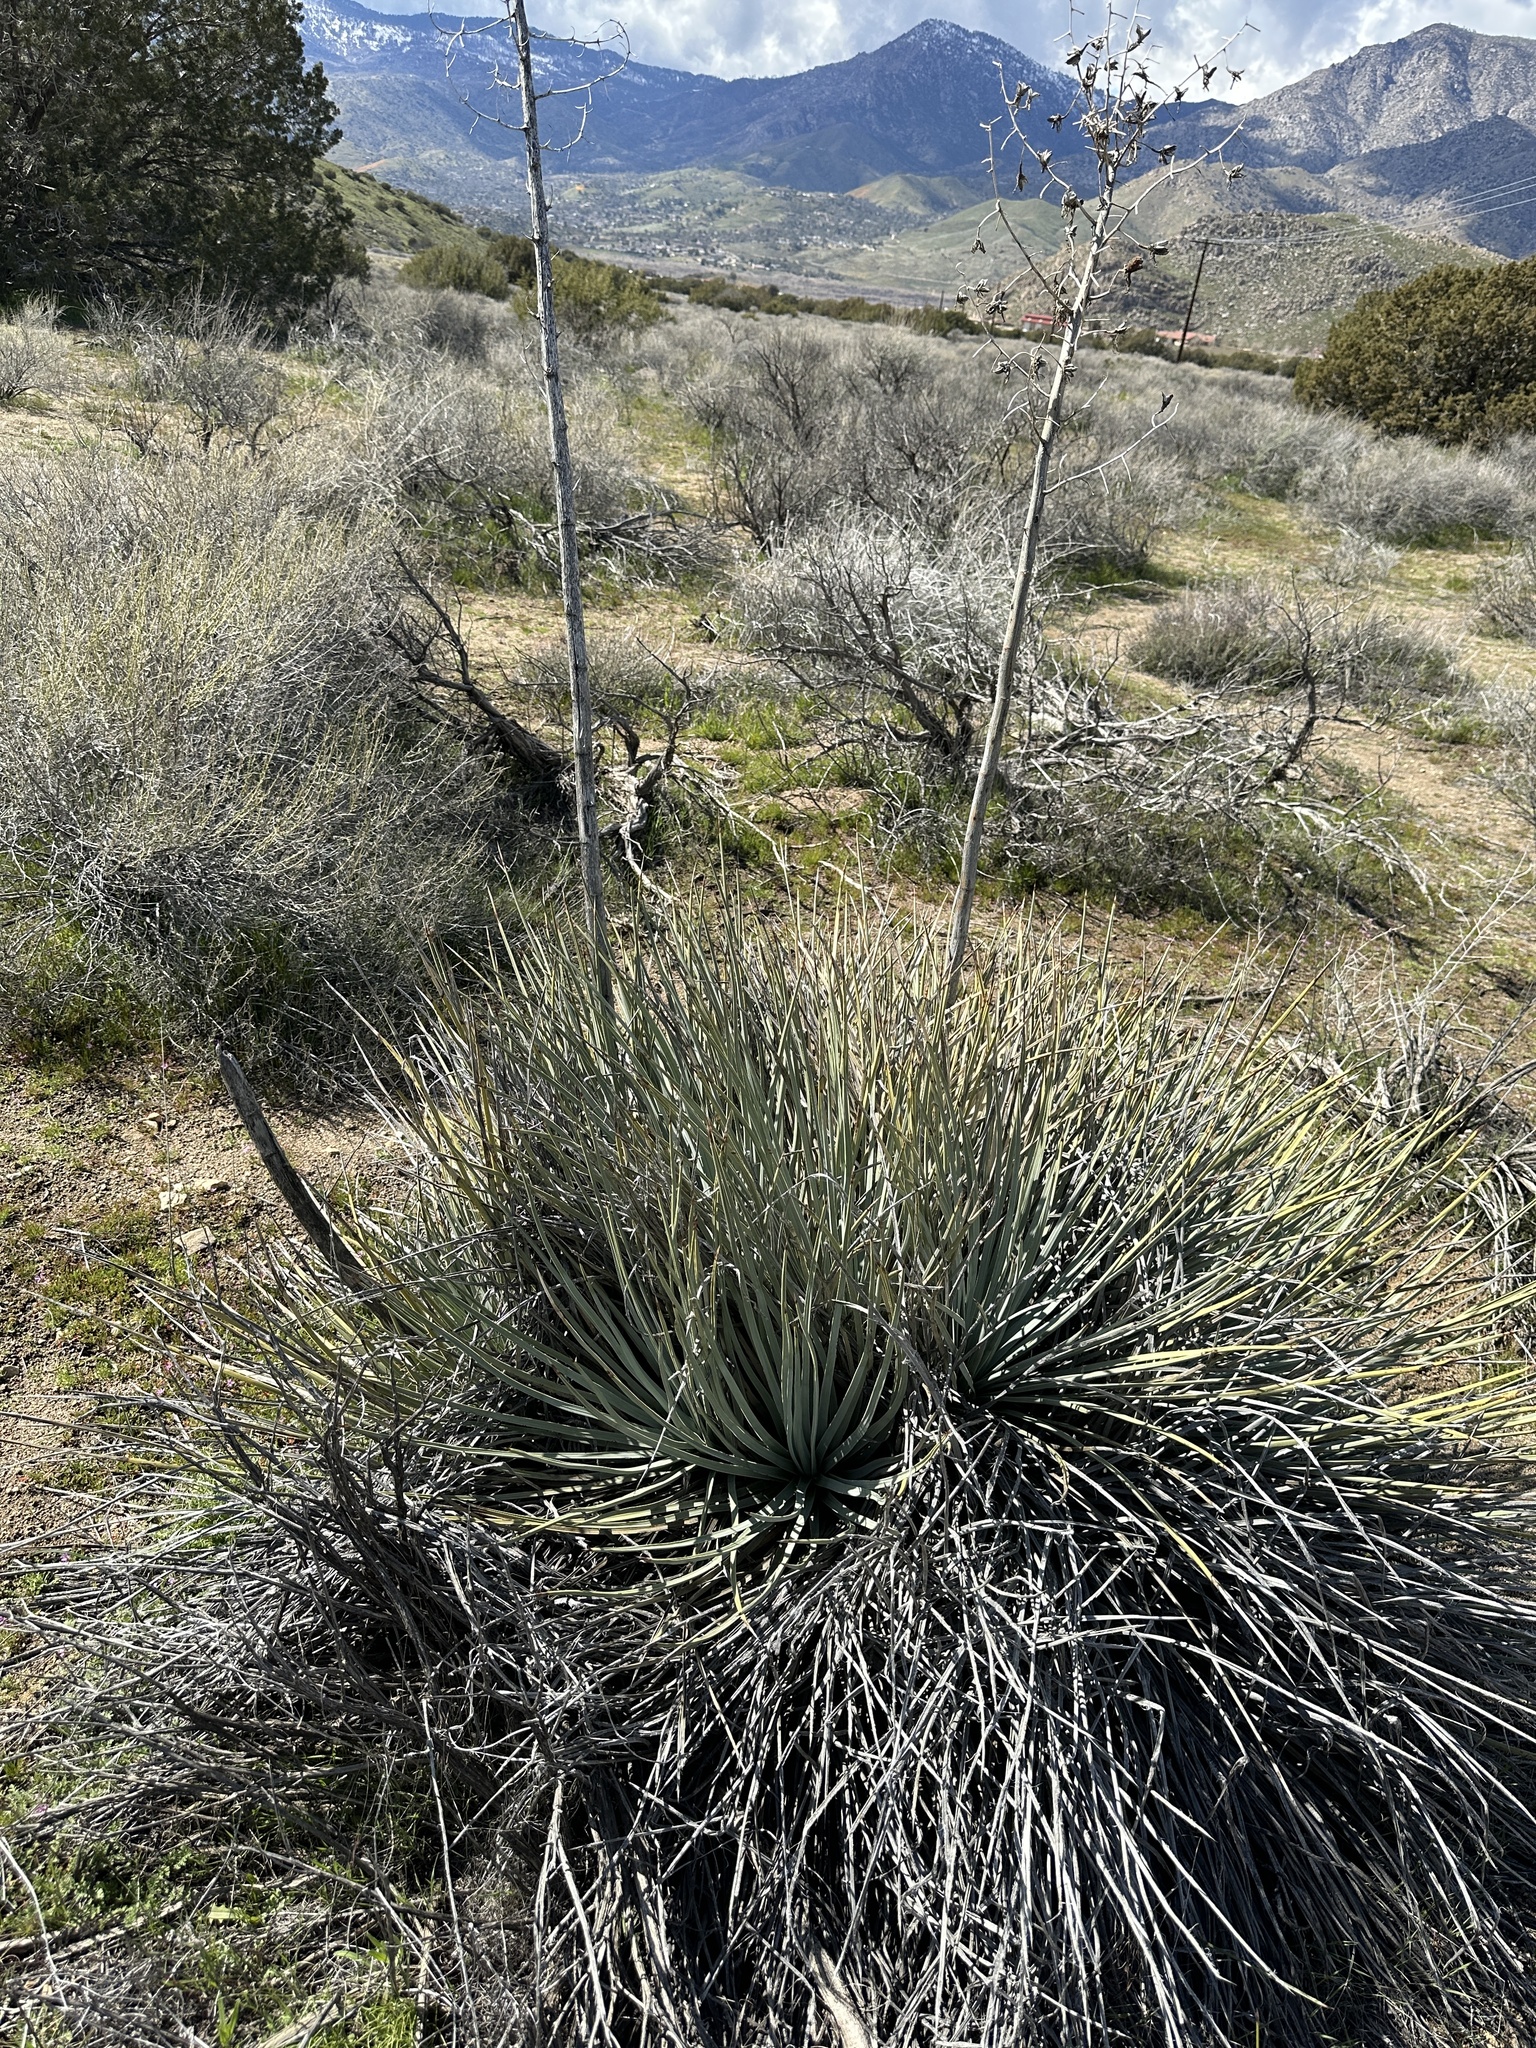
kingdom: Plantae
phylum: Tracheophyta
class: Liliopsida
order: Asparagales
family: Asparagaceae
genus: Hesperoyucca
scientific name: Hesperoyucca whipplei
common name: Our lord's-candle
